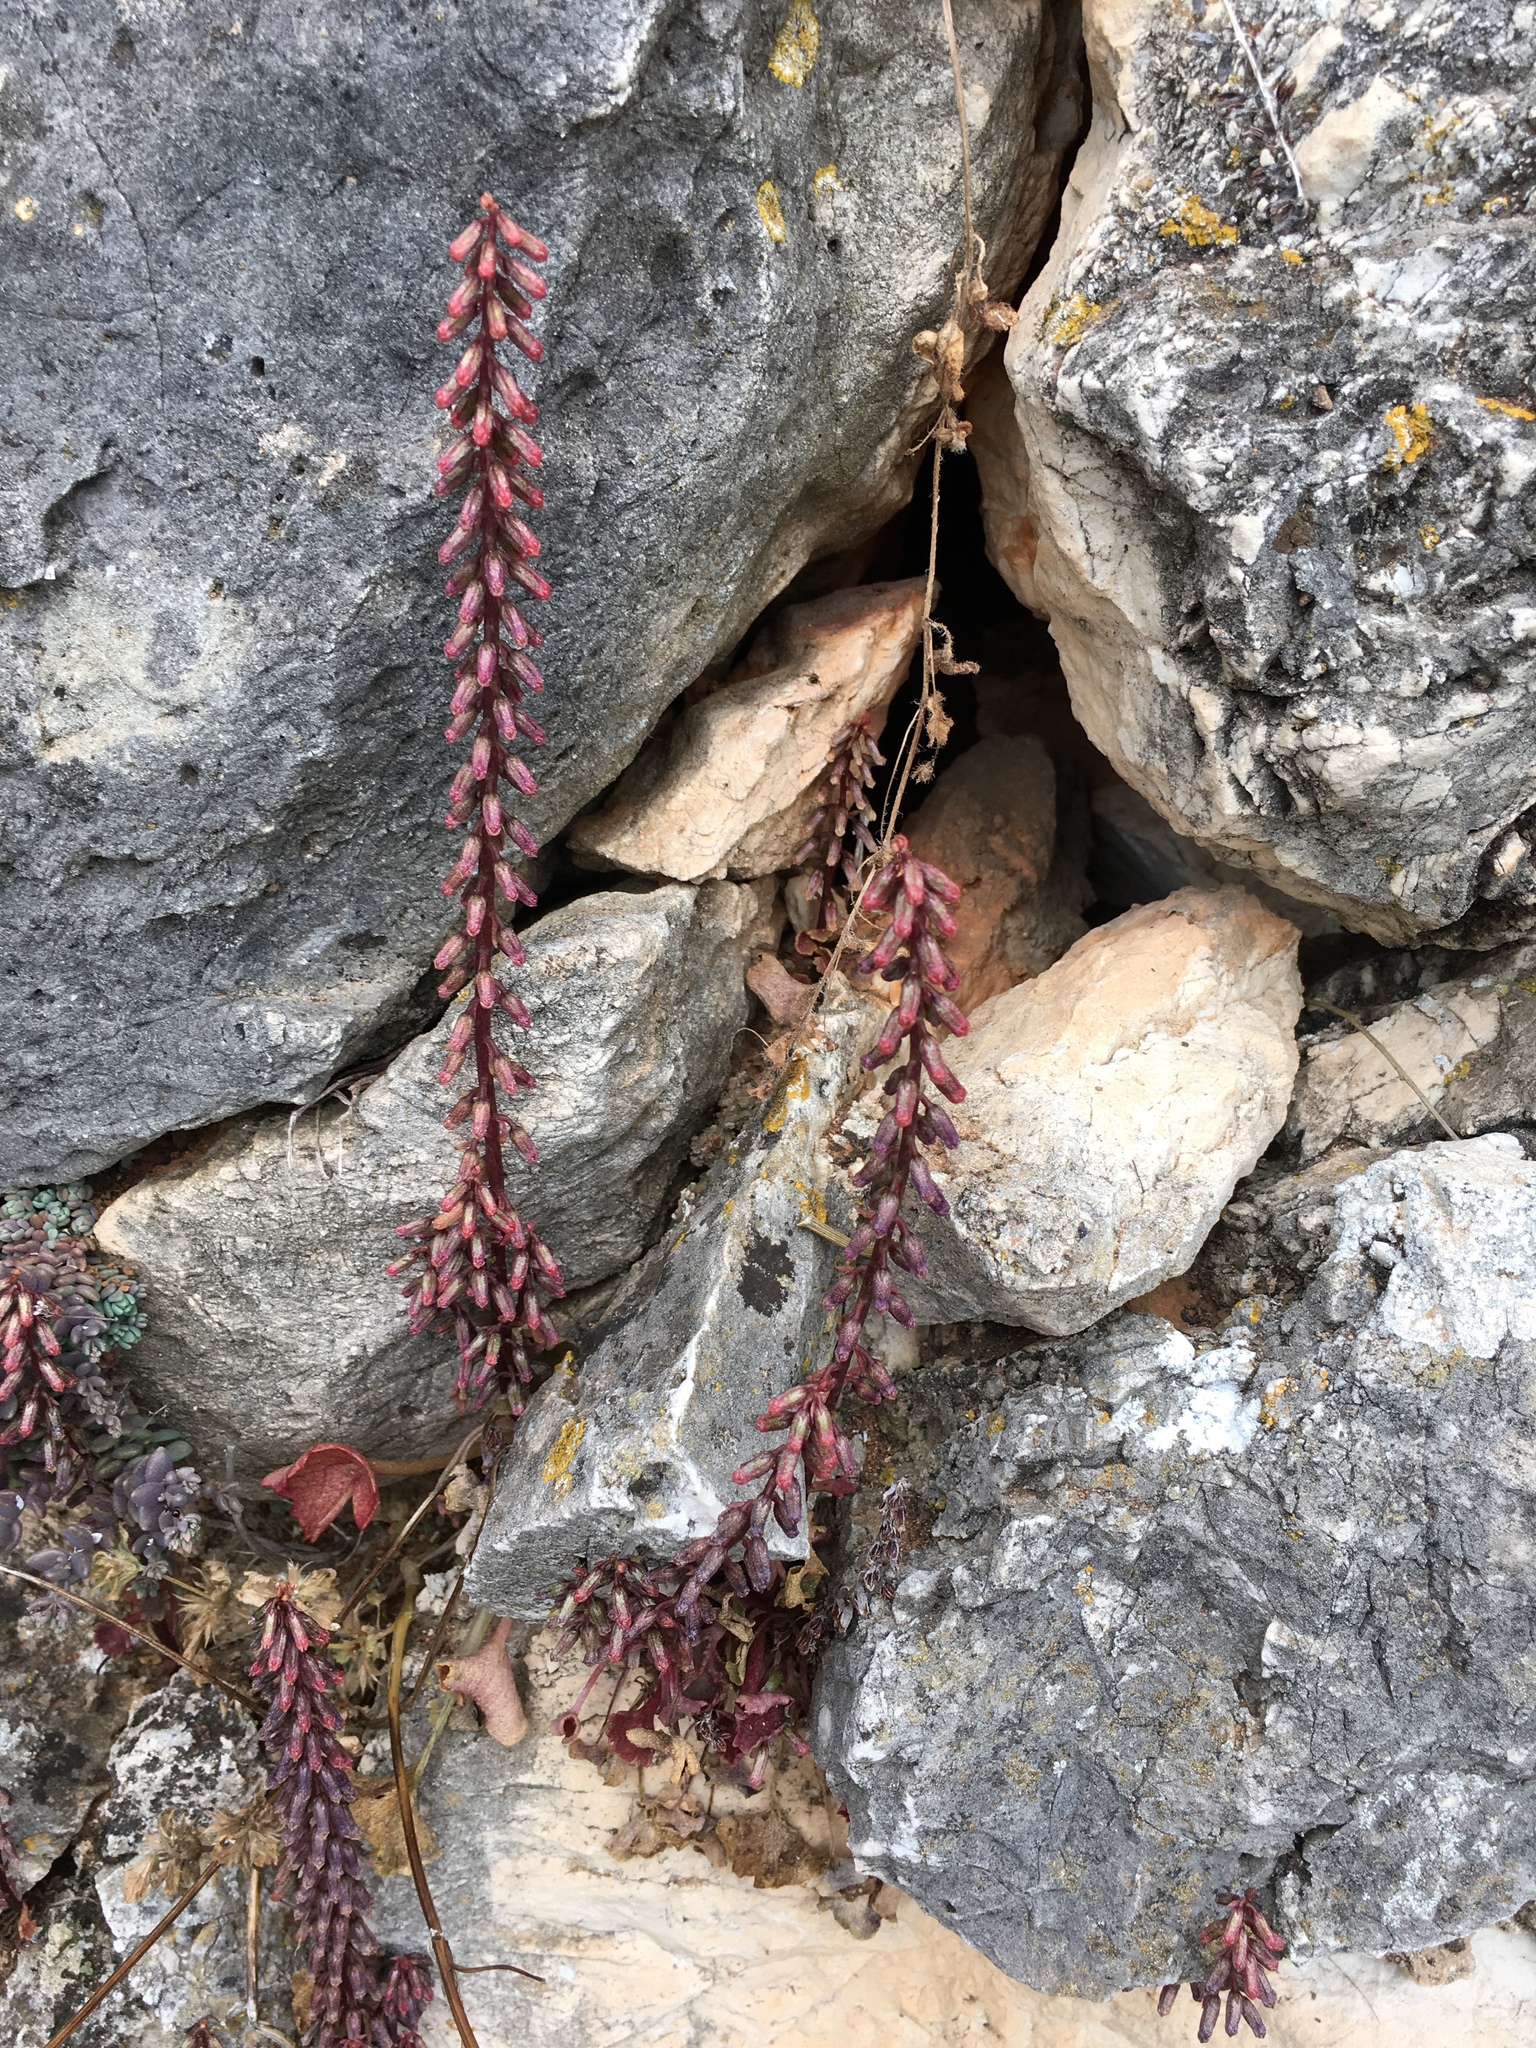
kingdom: Plantae
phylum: Tracheophyta
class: Magnoliopsida
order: Saxifragales
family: Crassulaceae
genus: Umbilicus
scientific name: Umbilicus rupestris
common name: Navelwort
